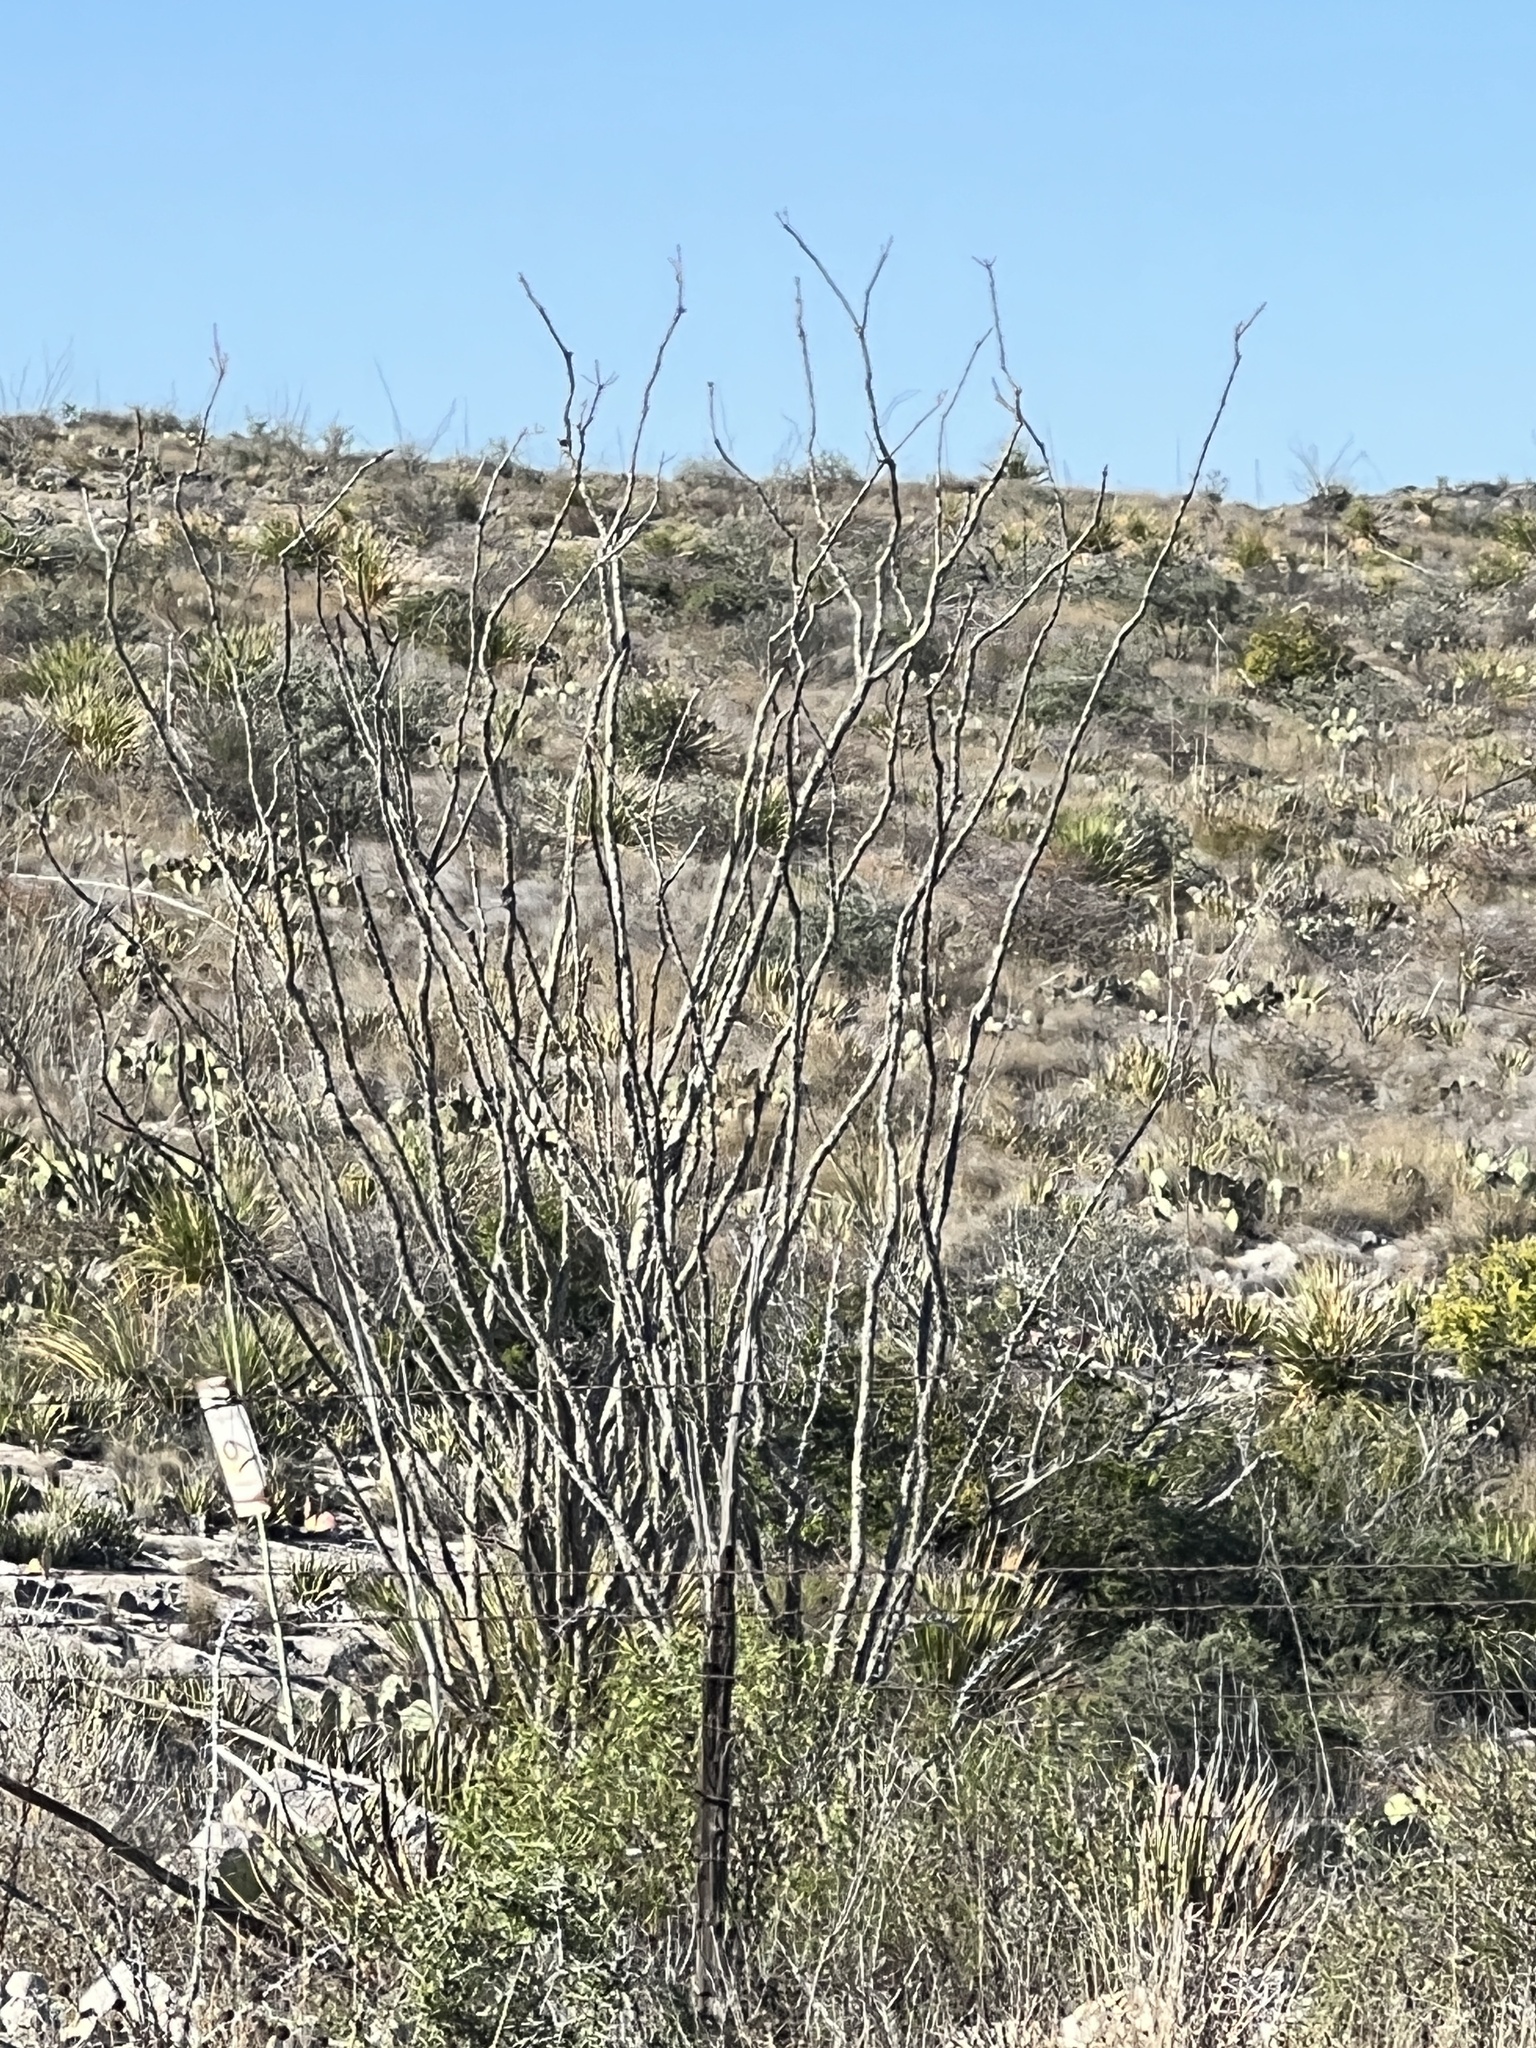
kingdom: Plantae
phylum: Tracheophyta
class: Magnoliopsida
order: Ericales
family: Fouquieriaceae
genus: Fouquieria
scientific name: Fouquieria splendens
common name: Vine-cactus
